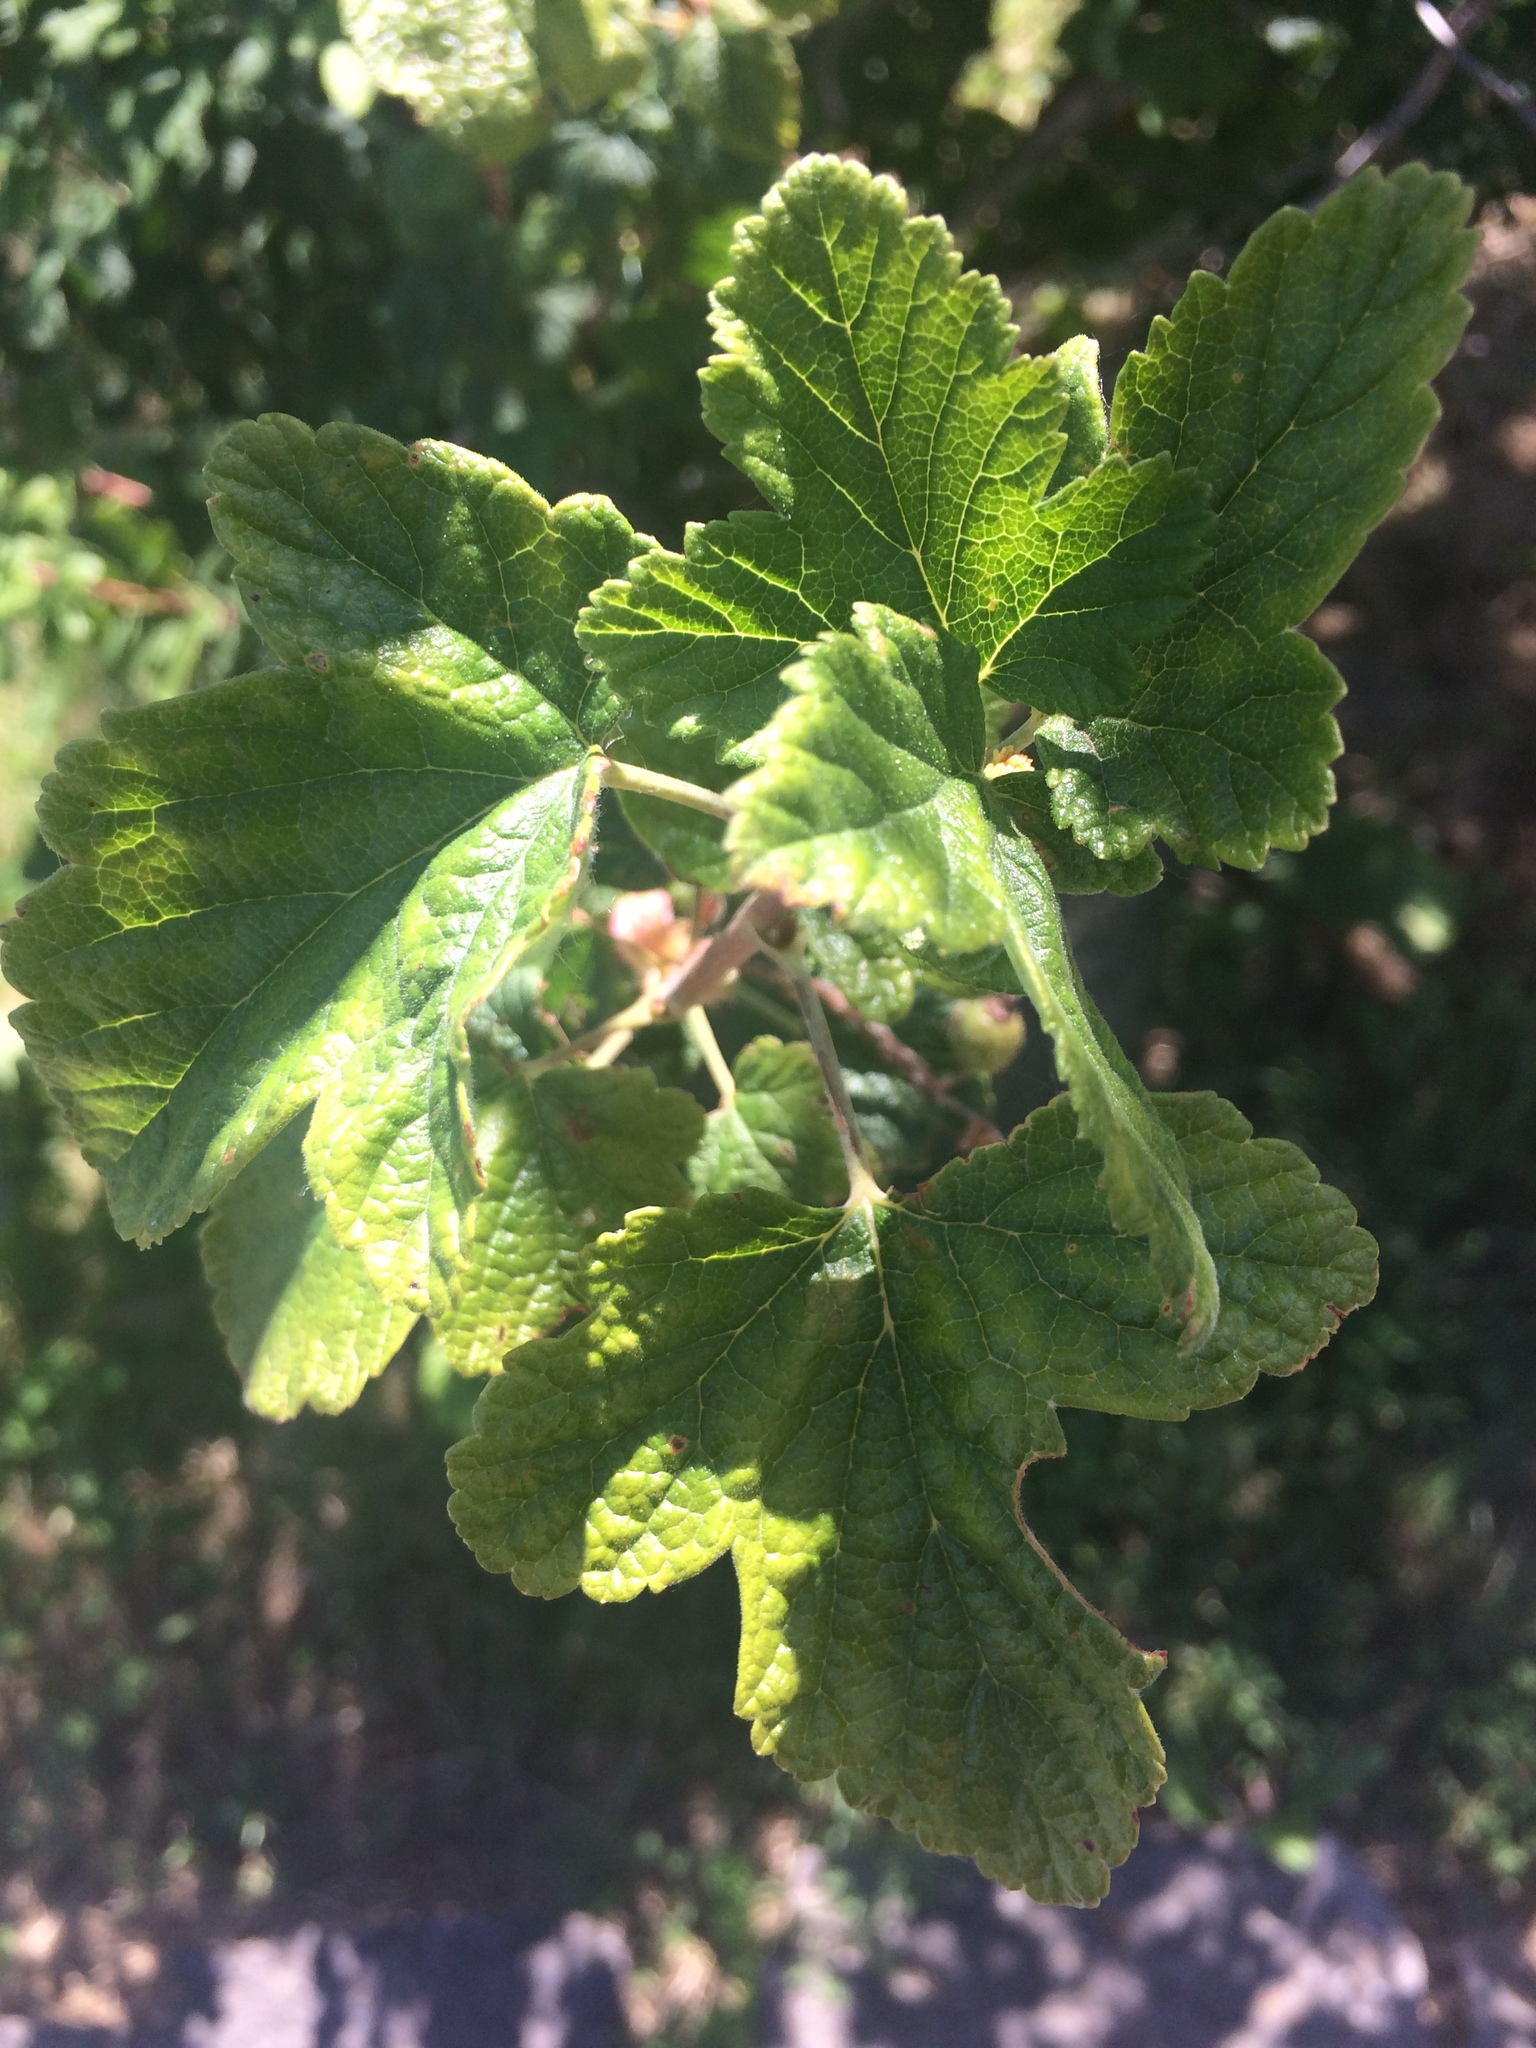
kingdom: Plantae
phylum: Tracheophyta
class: Magnoliopsida
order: Saxifragales
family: Grossulariaceae
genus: Ribes
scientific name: Ribes sanguineum
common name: Flowering currant
